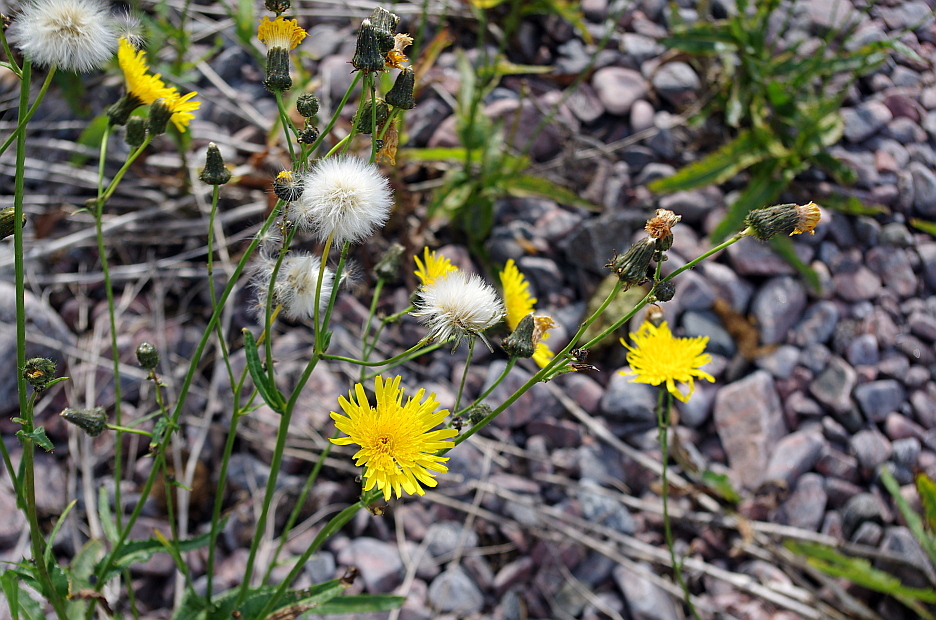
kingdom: Plantae
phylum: Tracheophyta
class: Magnoliopsida
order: Asterales
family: Asteraceae
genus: Sonchus
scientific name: Sonchus arvensis
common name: Perennial sow-thistle
